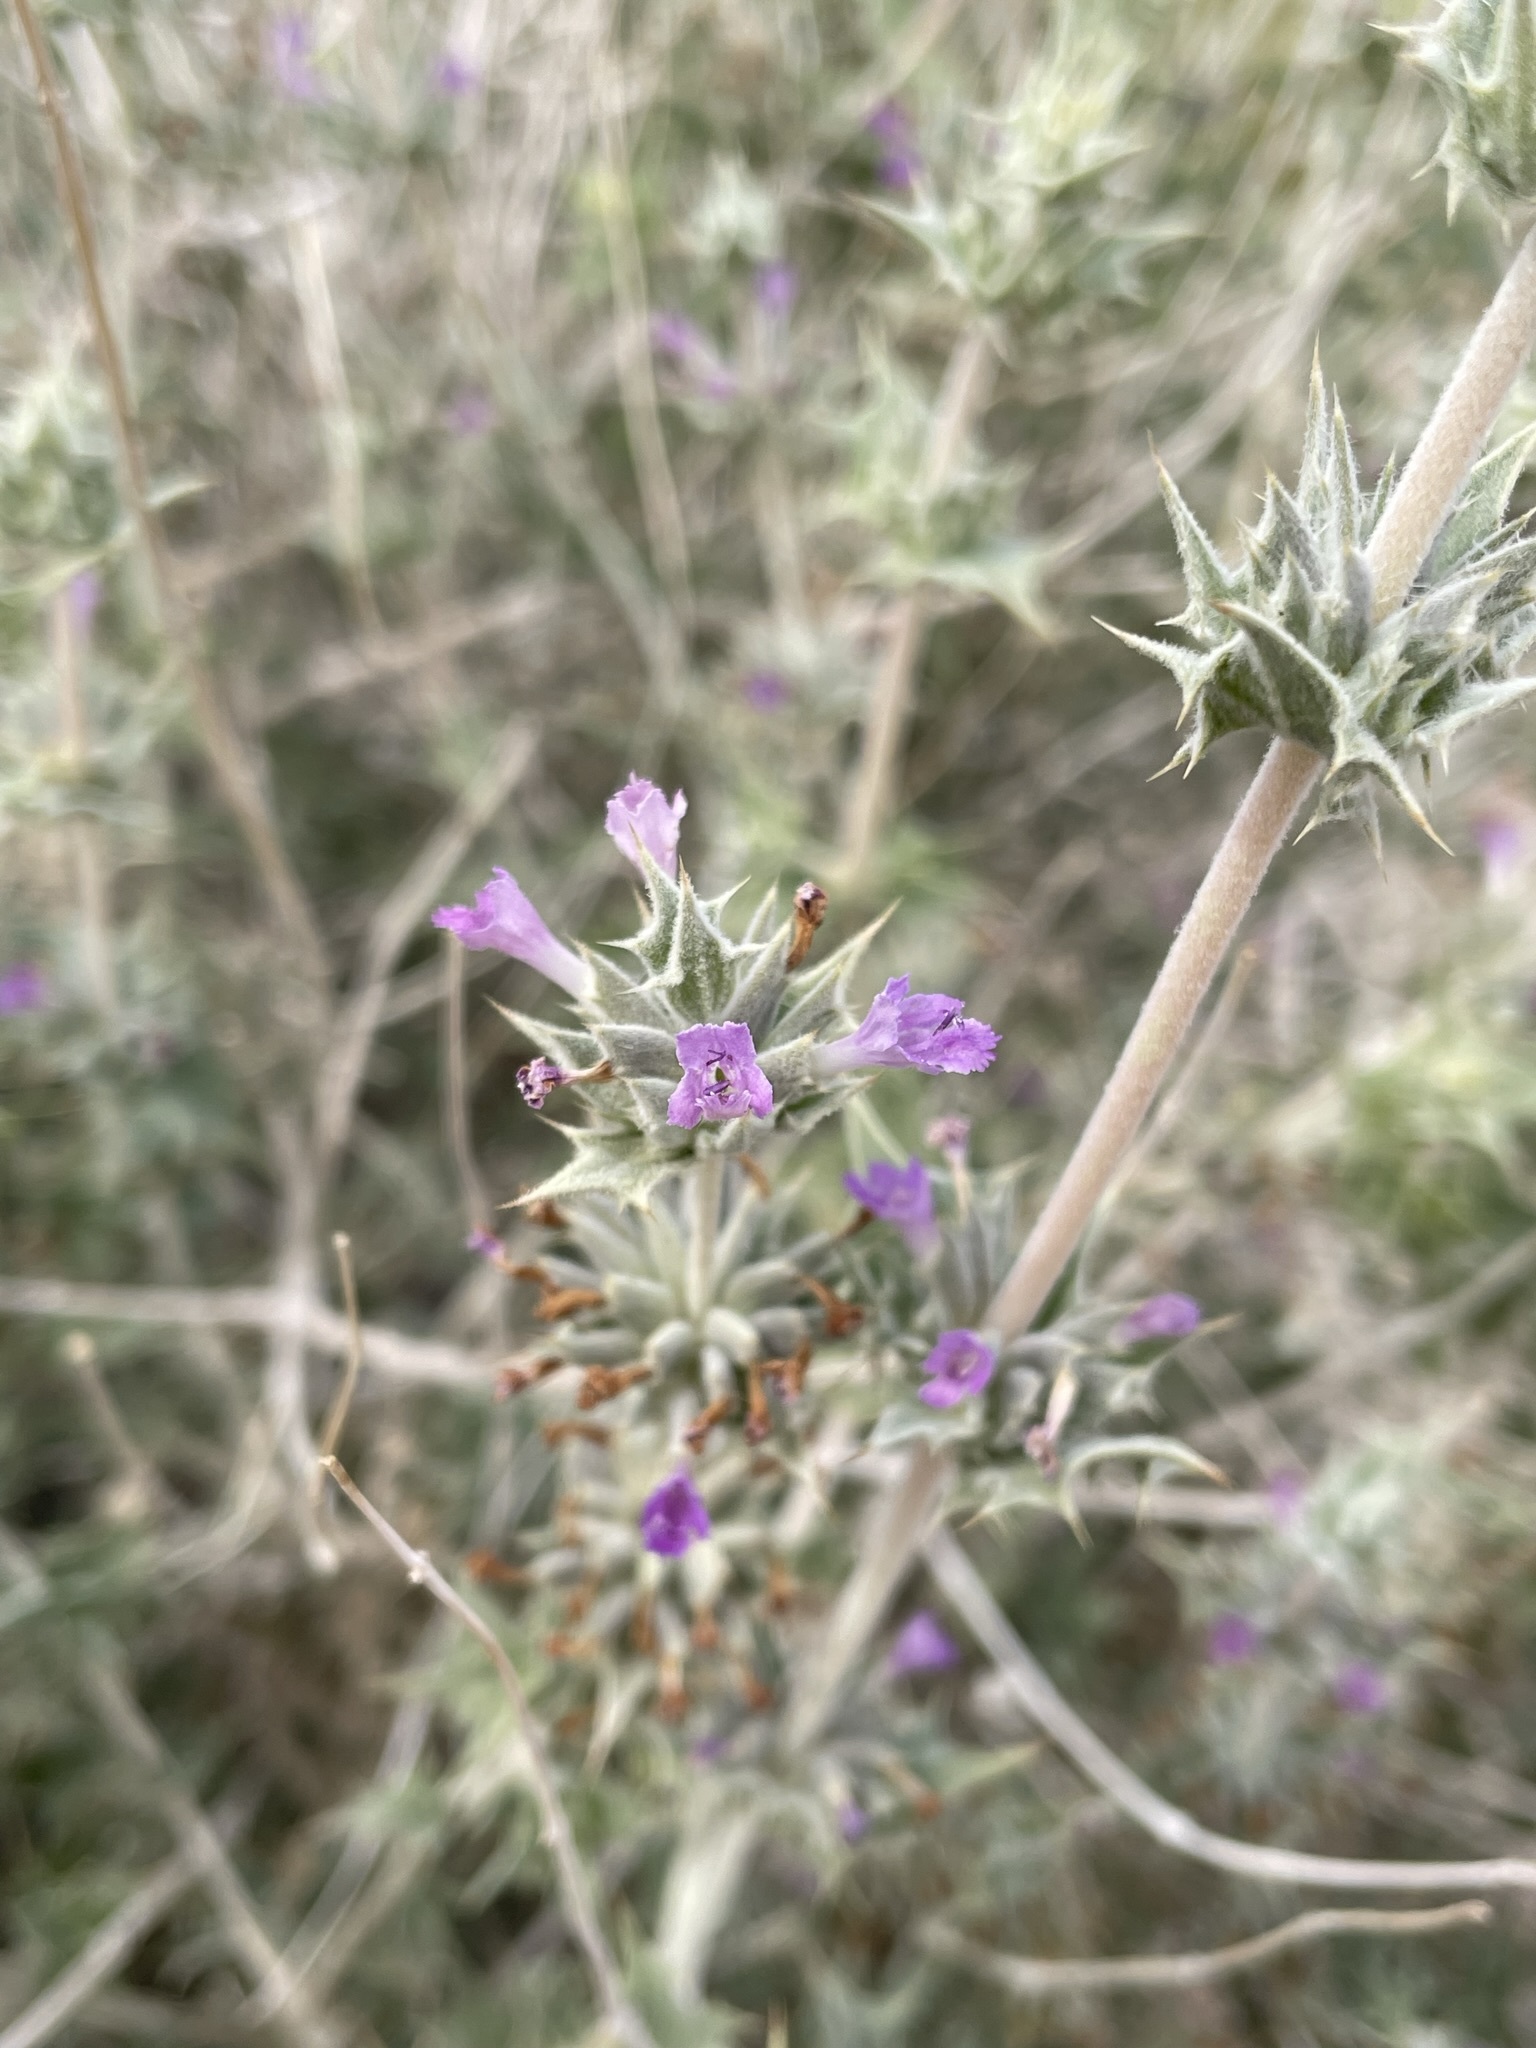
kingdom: Plantae
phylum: Tracheophyta
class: Magnoliopsida
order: Lamiales
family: Lamiaceae
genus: Salvia
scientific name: Salvia greatae
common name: Orocopia sage
